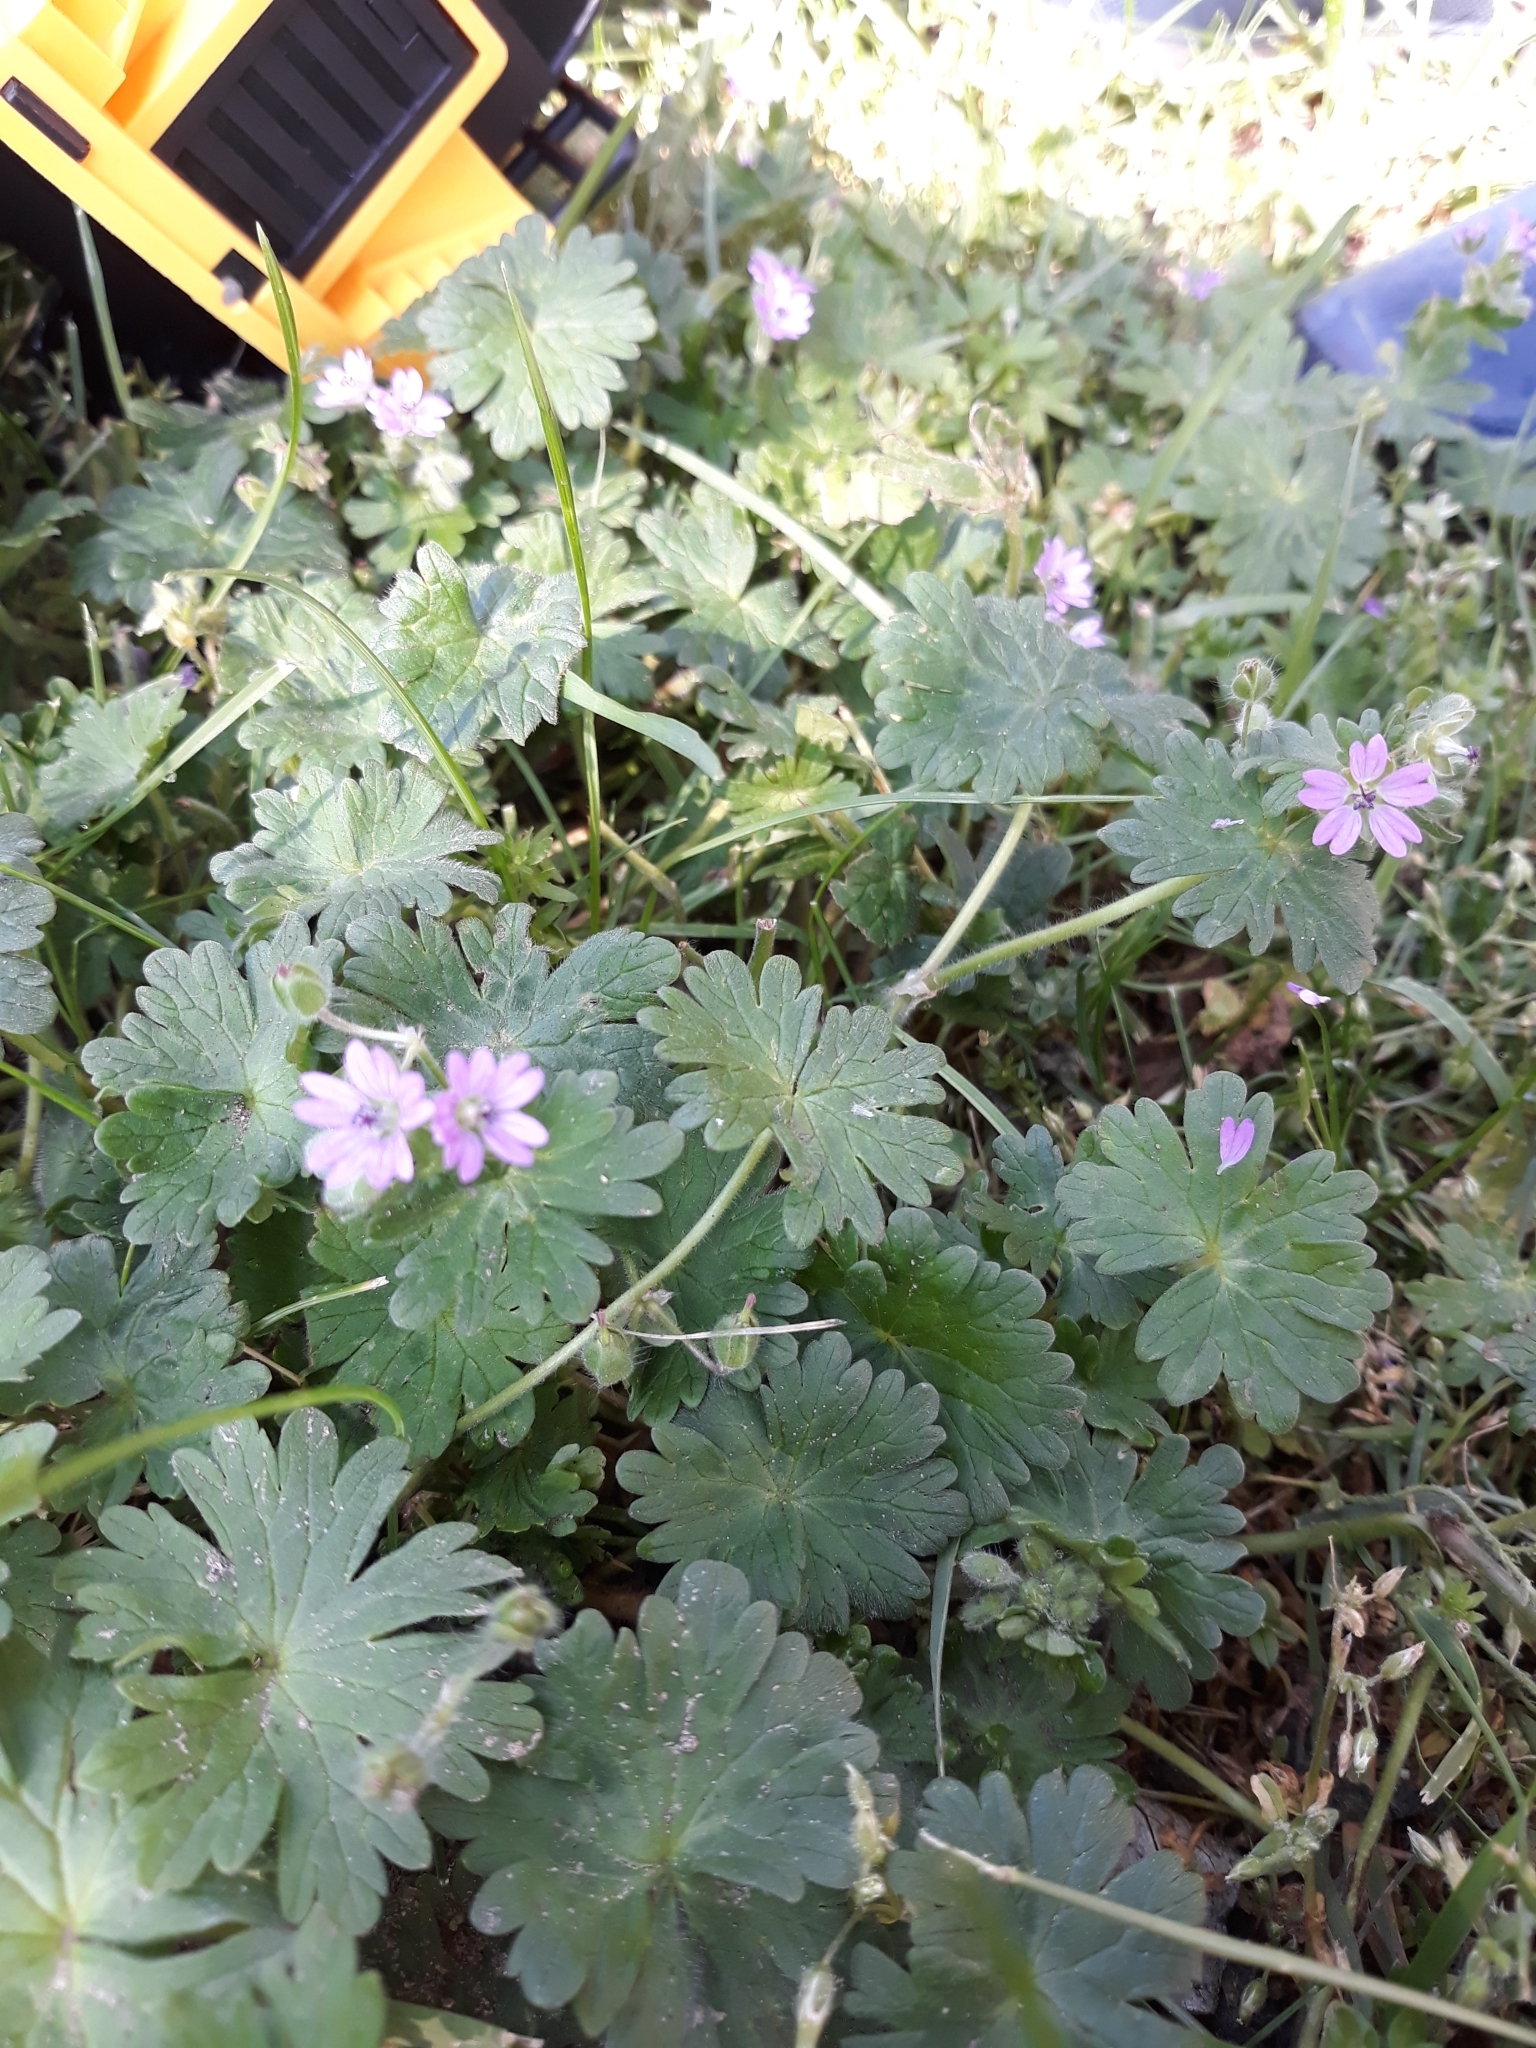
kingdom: Plantae
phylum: Tracheophyta
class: Magnoliopsida
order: Geraniales
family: Geraniaceae
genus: Geranium
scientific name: Geranium molle
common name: Dove's-foot crane's-bill
